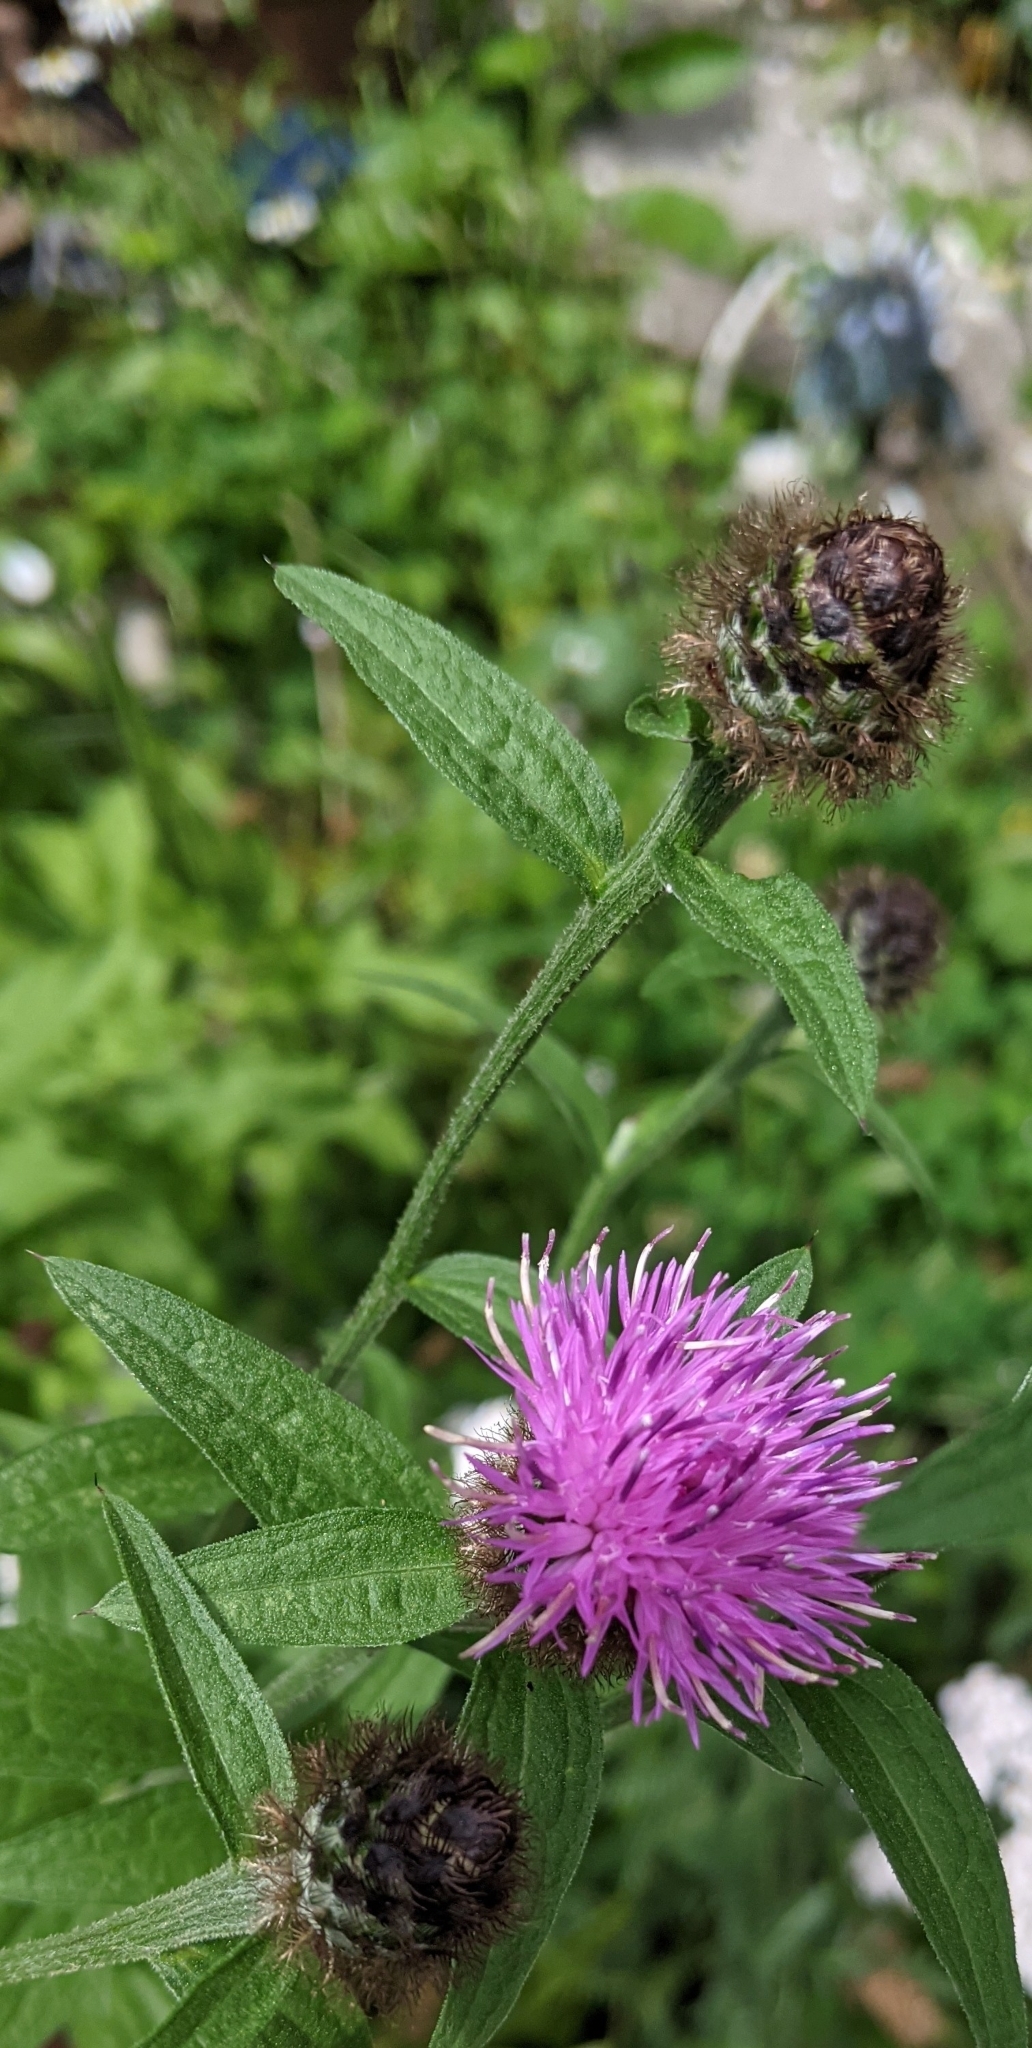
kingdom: Plantae
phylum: Tracheophyta
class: Magnoliopsida
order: Asterales
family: Asteraceae
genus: Centaurea
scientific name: Centaurea nigra
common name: Lesser knapweed
